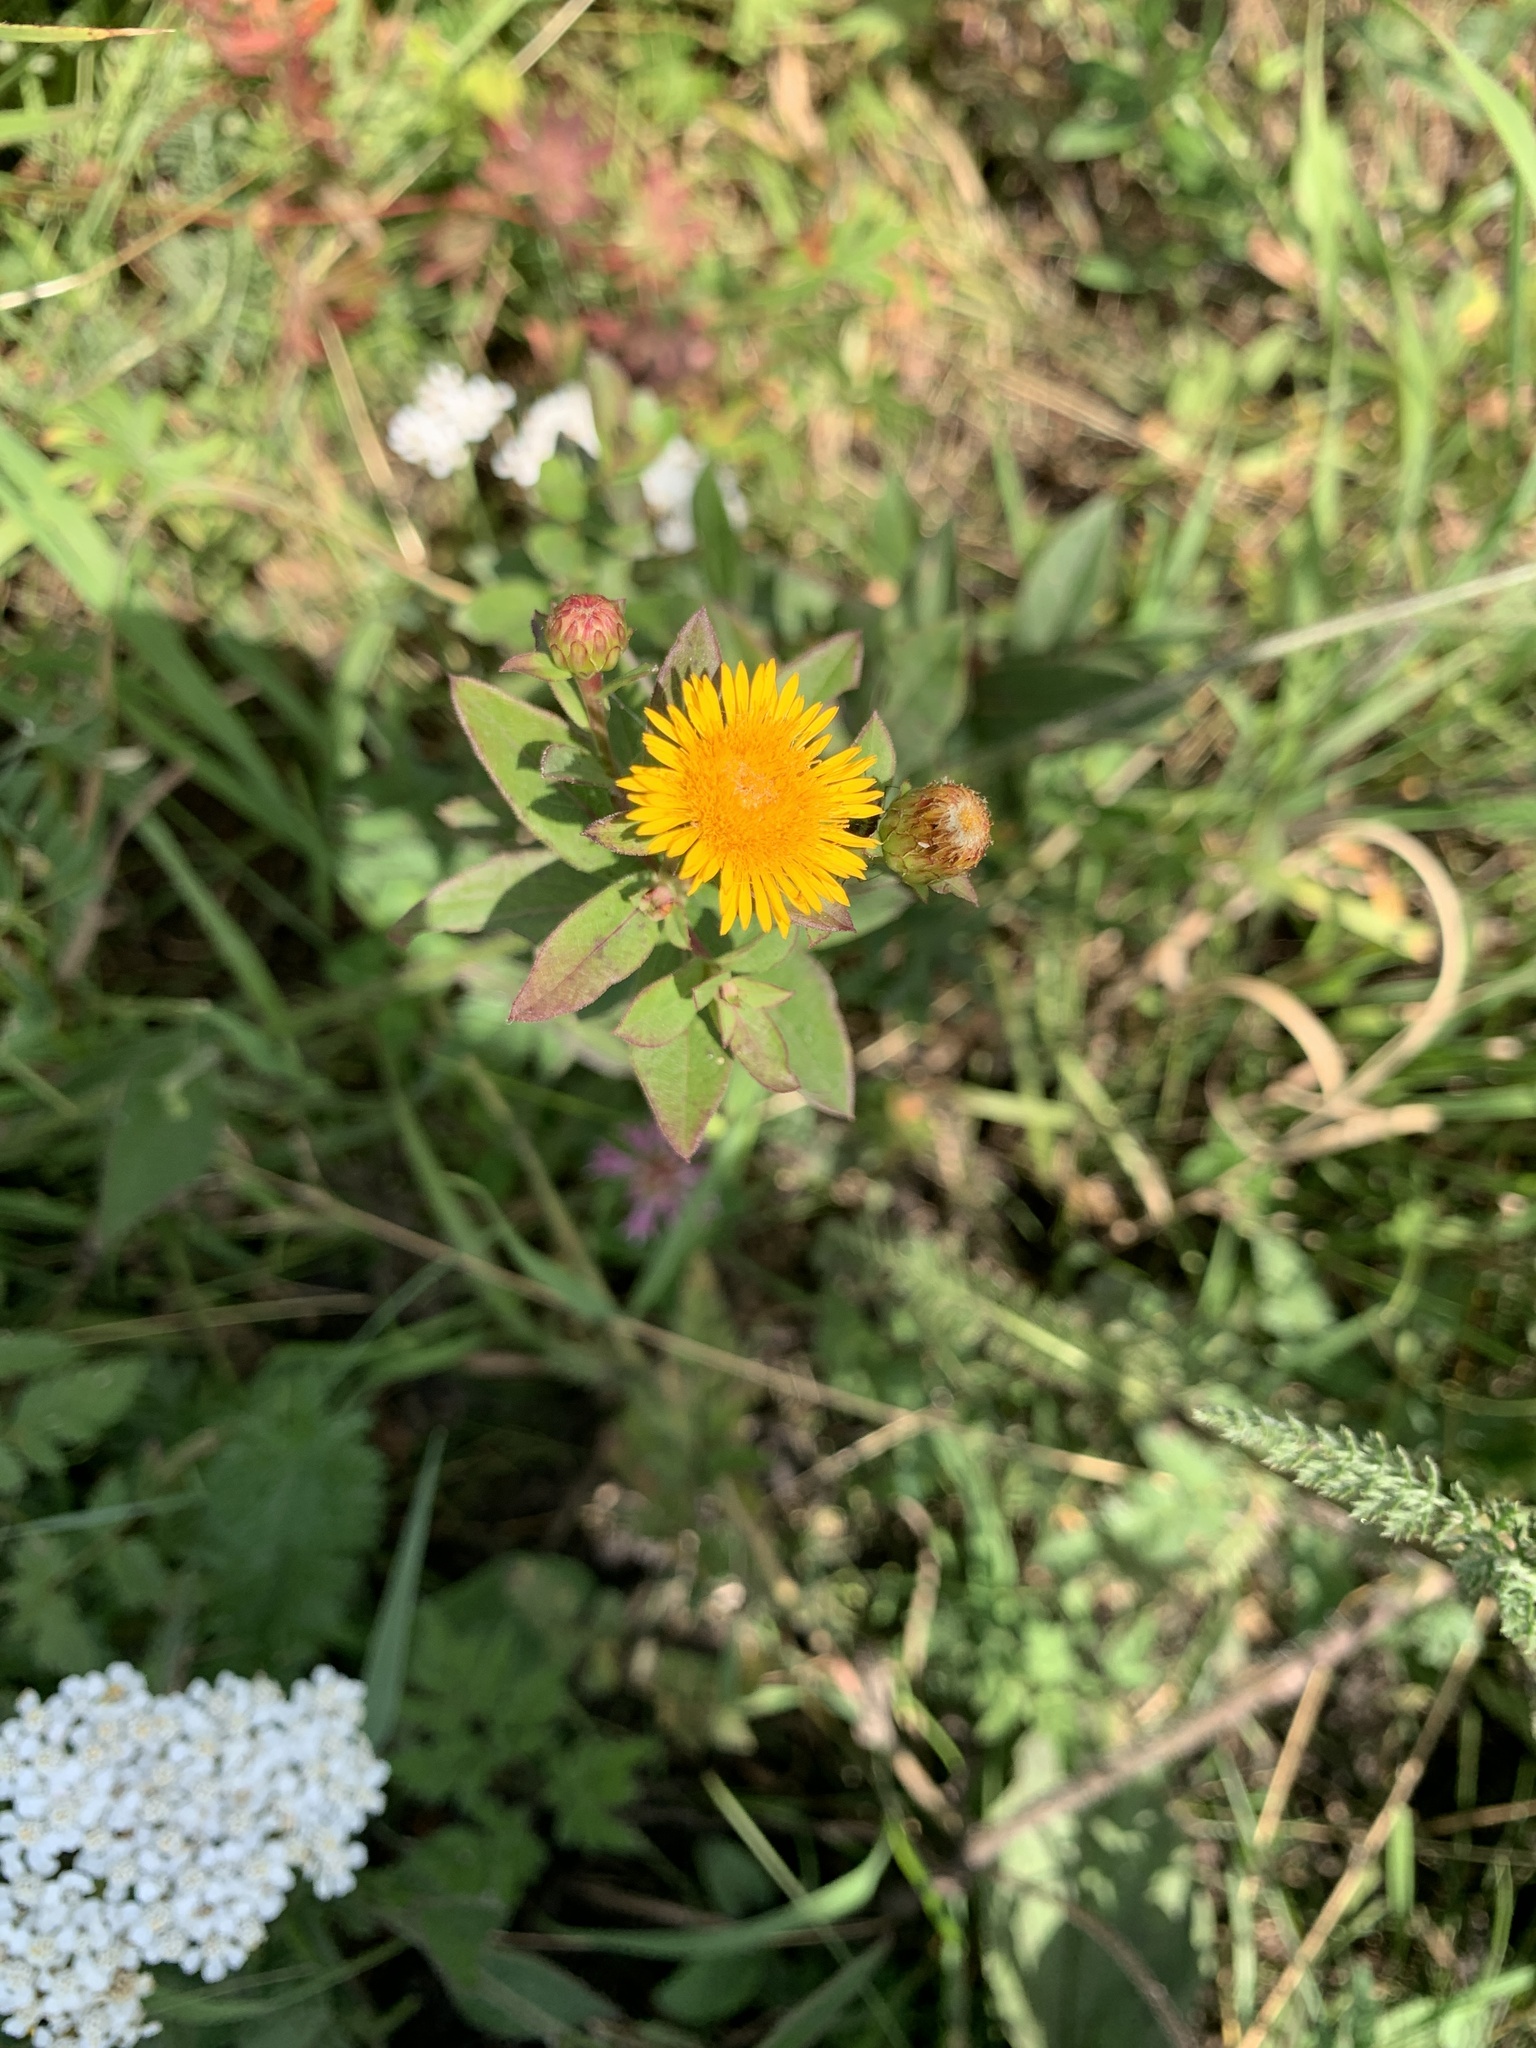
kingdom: Plantae
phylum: Tracheophyta
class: Magnoliopsida
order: Asterales
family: Asteraceae
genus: Pentanema
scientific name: Pentanema asperum
